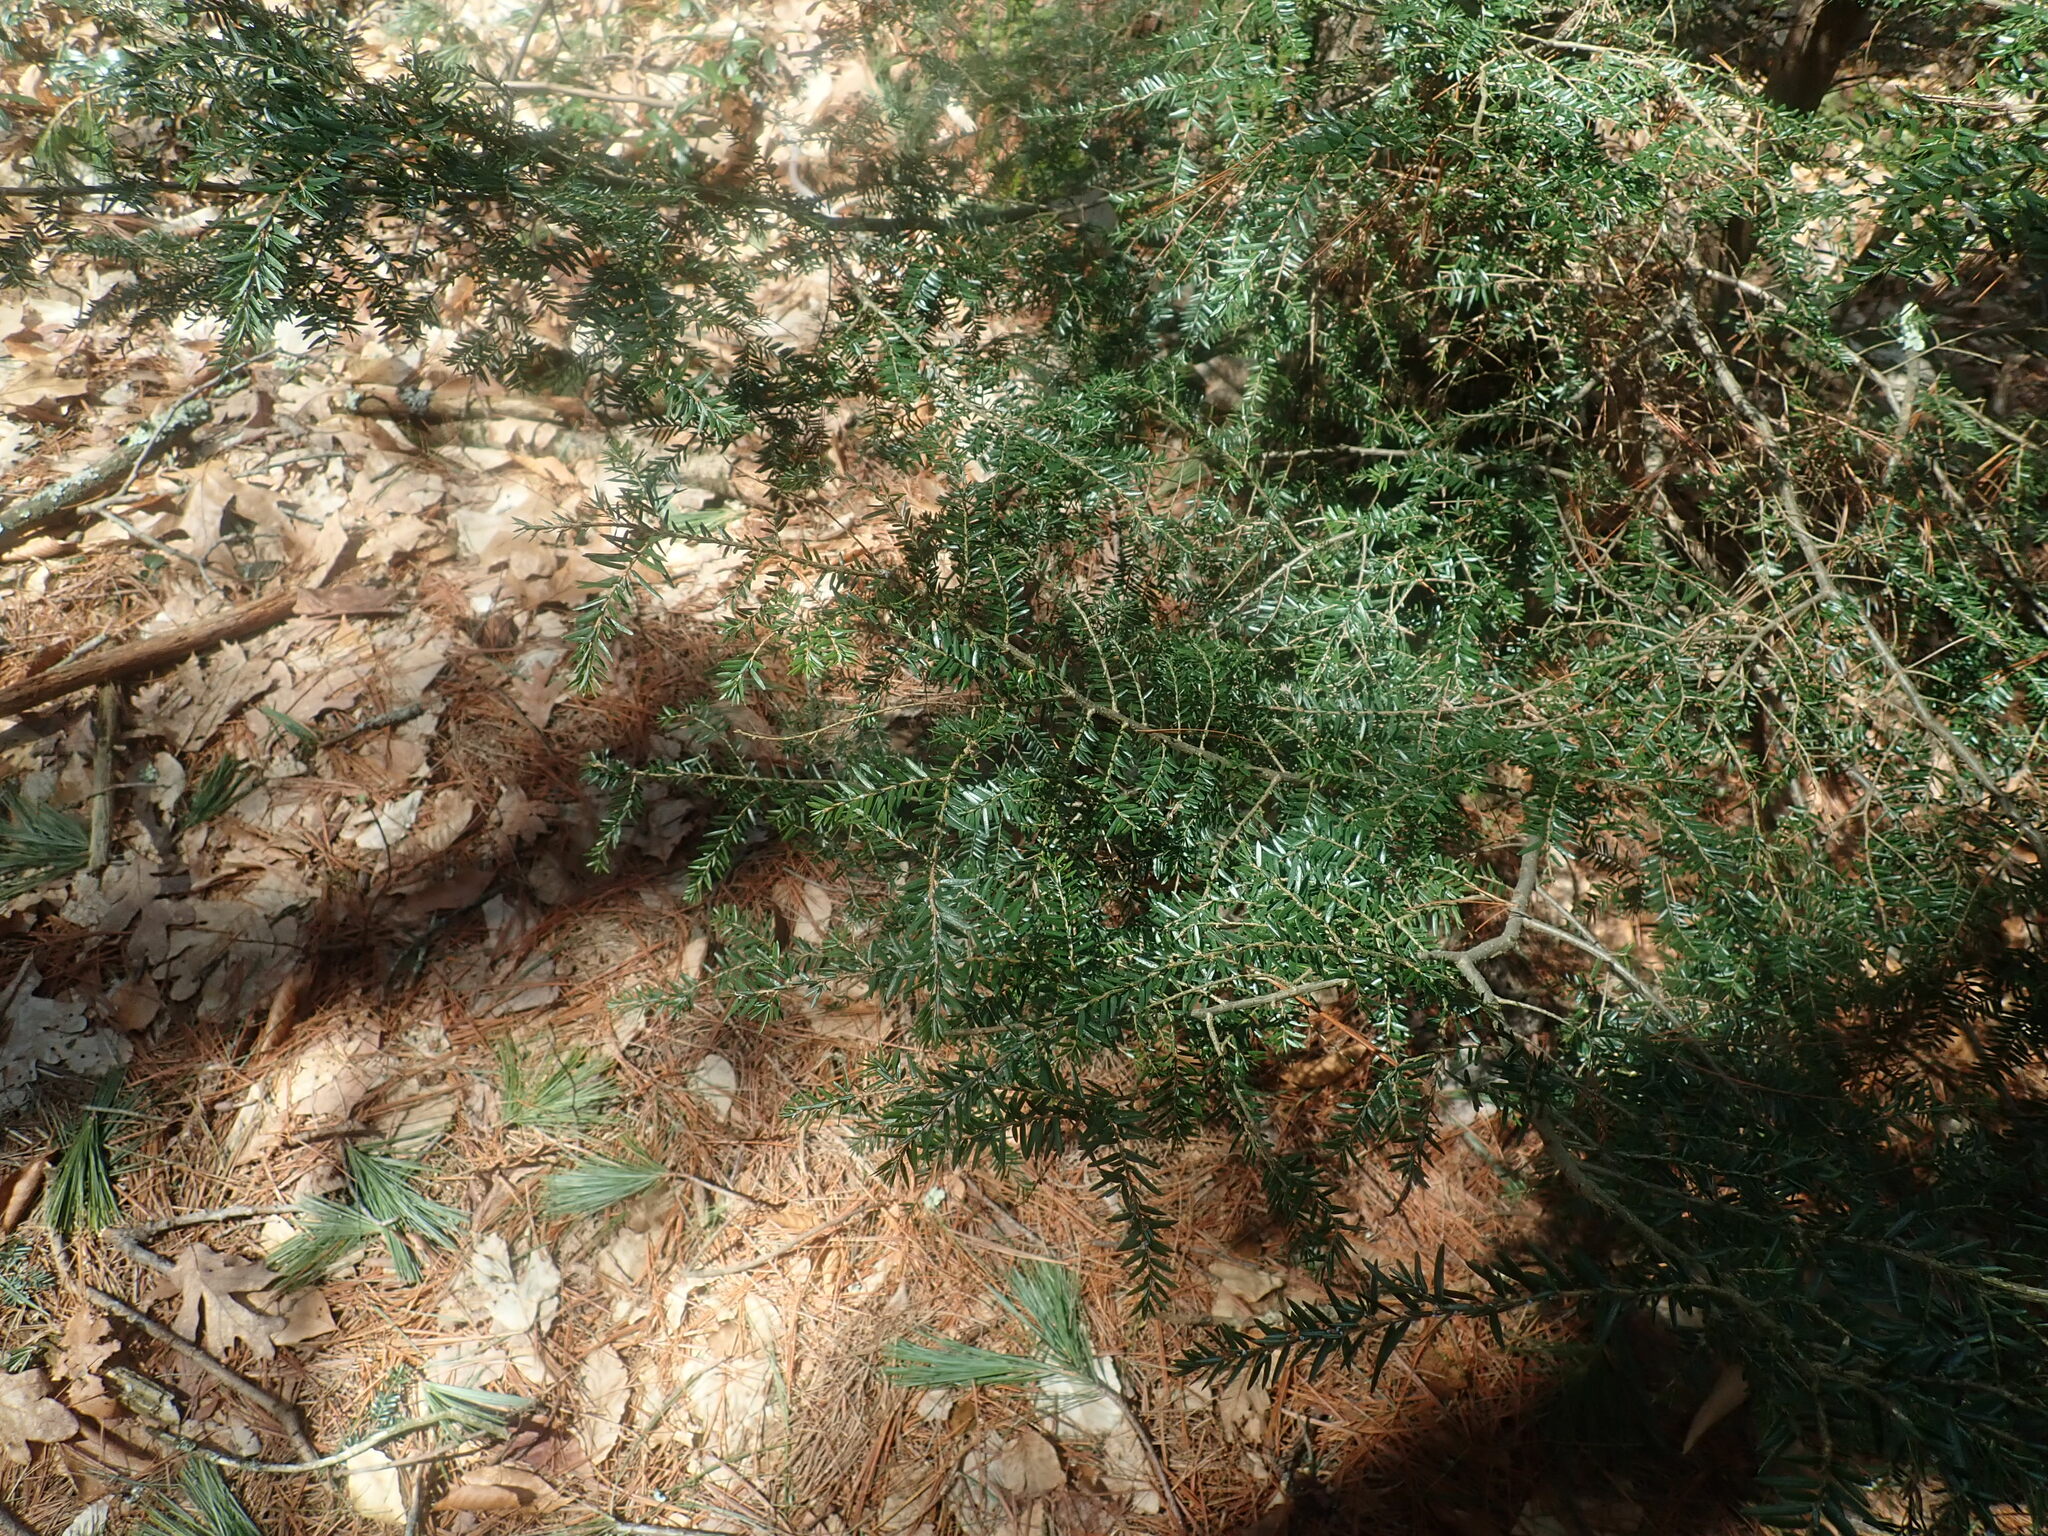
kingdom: Plantae
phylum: Tracheophyta
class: Pinopsida
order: Pinales
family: Pinaceae
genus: Tsuga
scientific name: Tsuga canadensis
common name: Eastern hemlock
